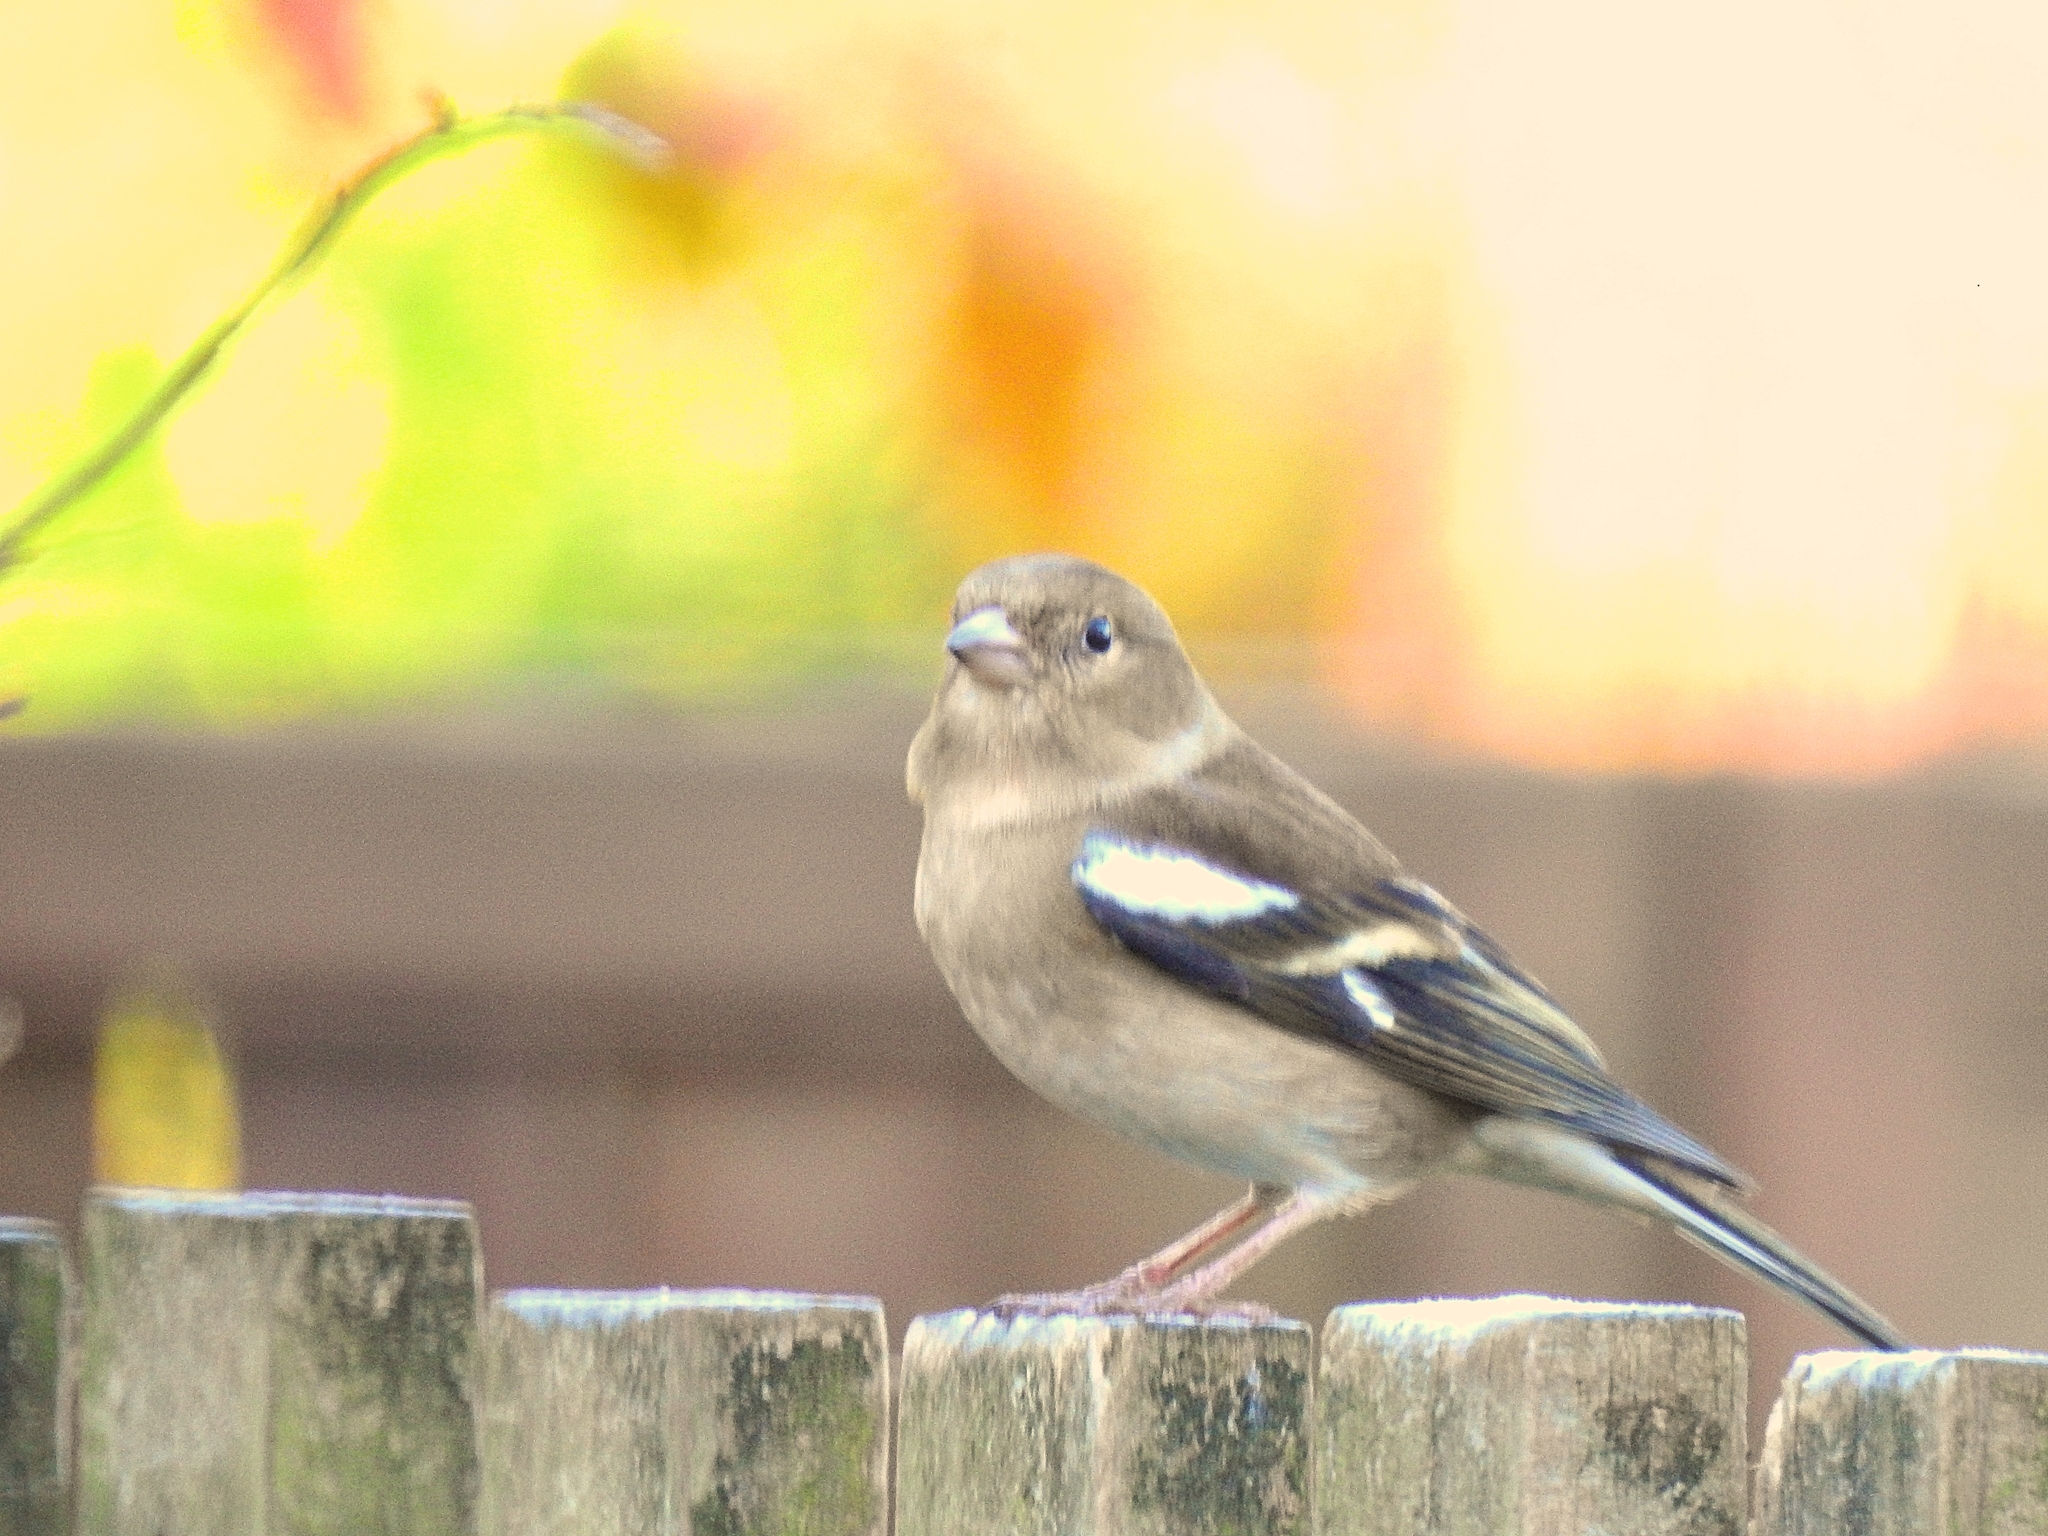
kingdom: Animalia
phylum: Chordata
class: Aves
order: Passeriformes
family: Fringillidae
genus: Fringilla
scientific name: Fringilla coelebs
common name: Common chaffinch
